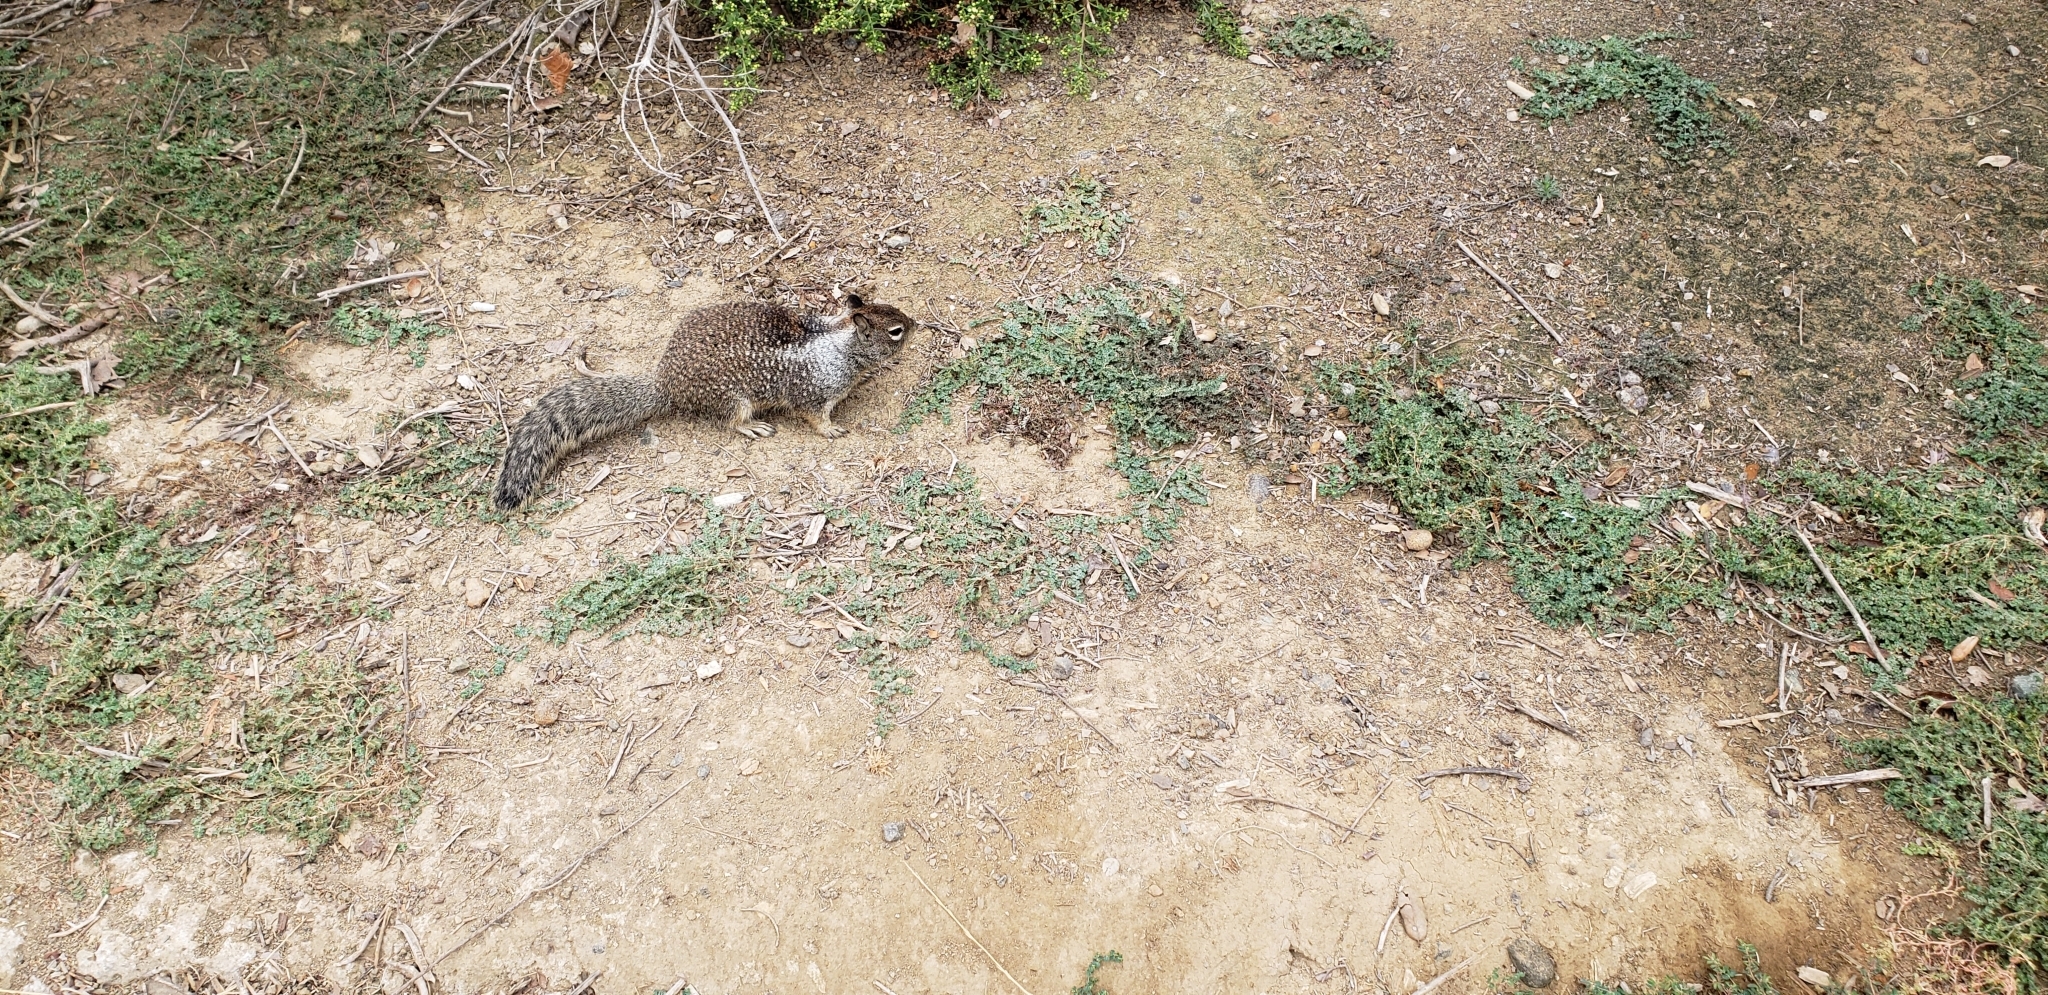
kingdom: Animalia
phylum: Chordata
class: Mammalia
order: Rodentia
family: Sciuridae
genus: Otospermophilus
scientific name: Otospermophilus beecheyi
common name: California ground squirrel
